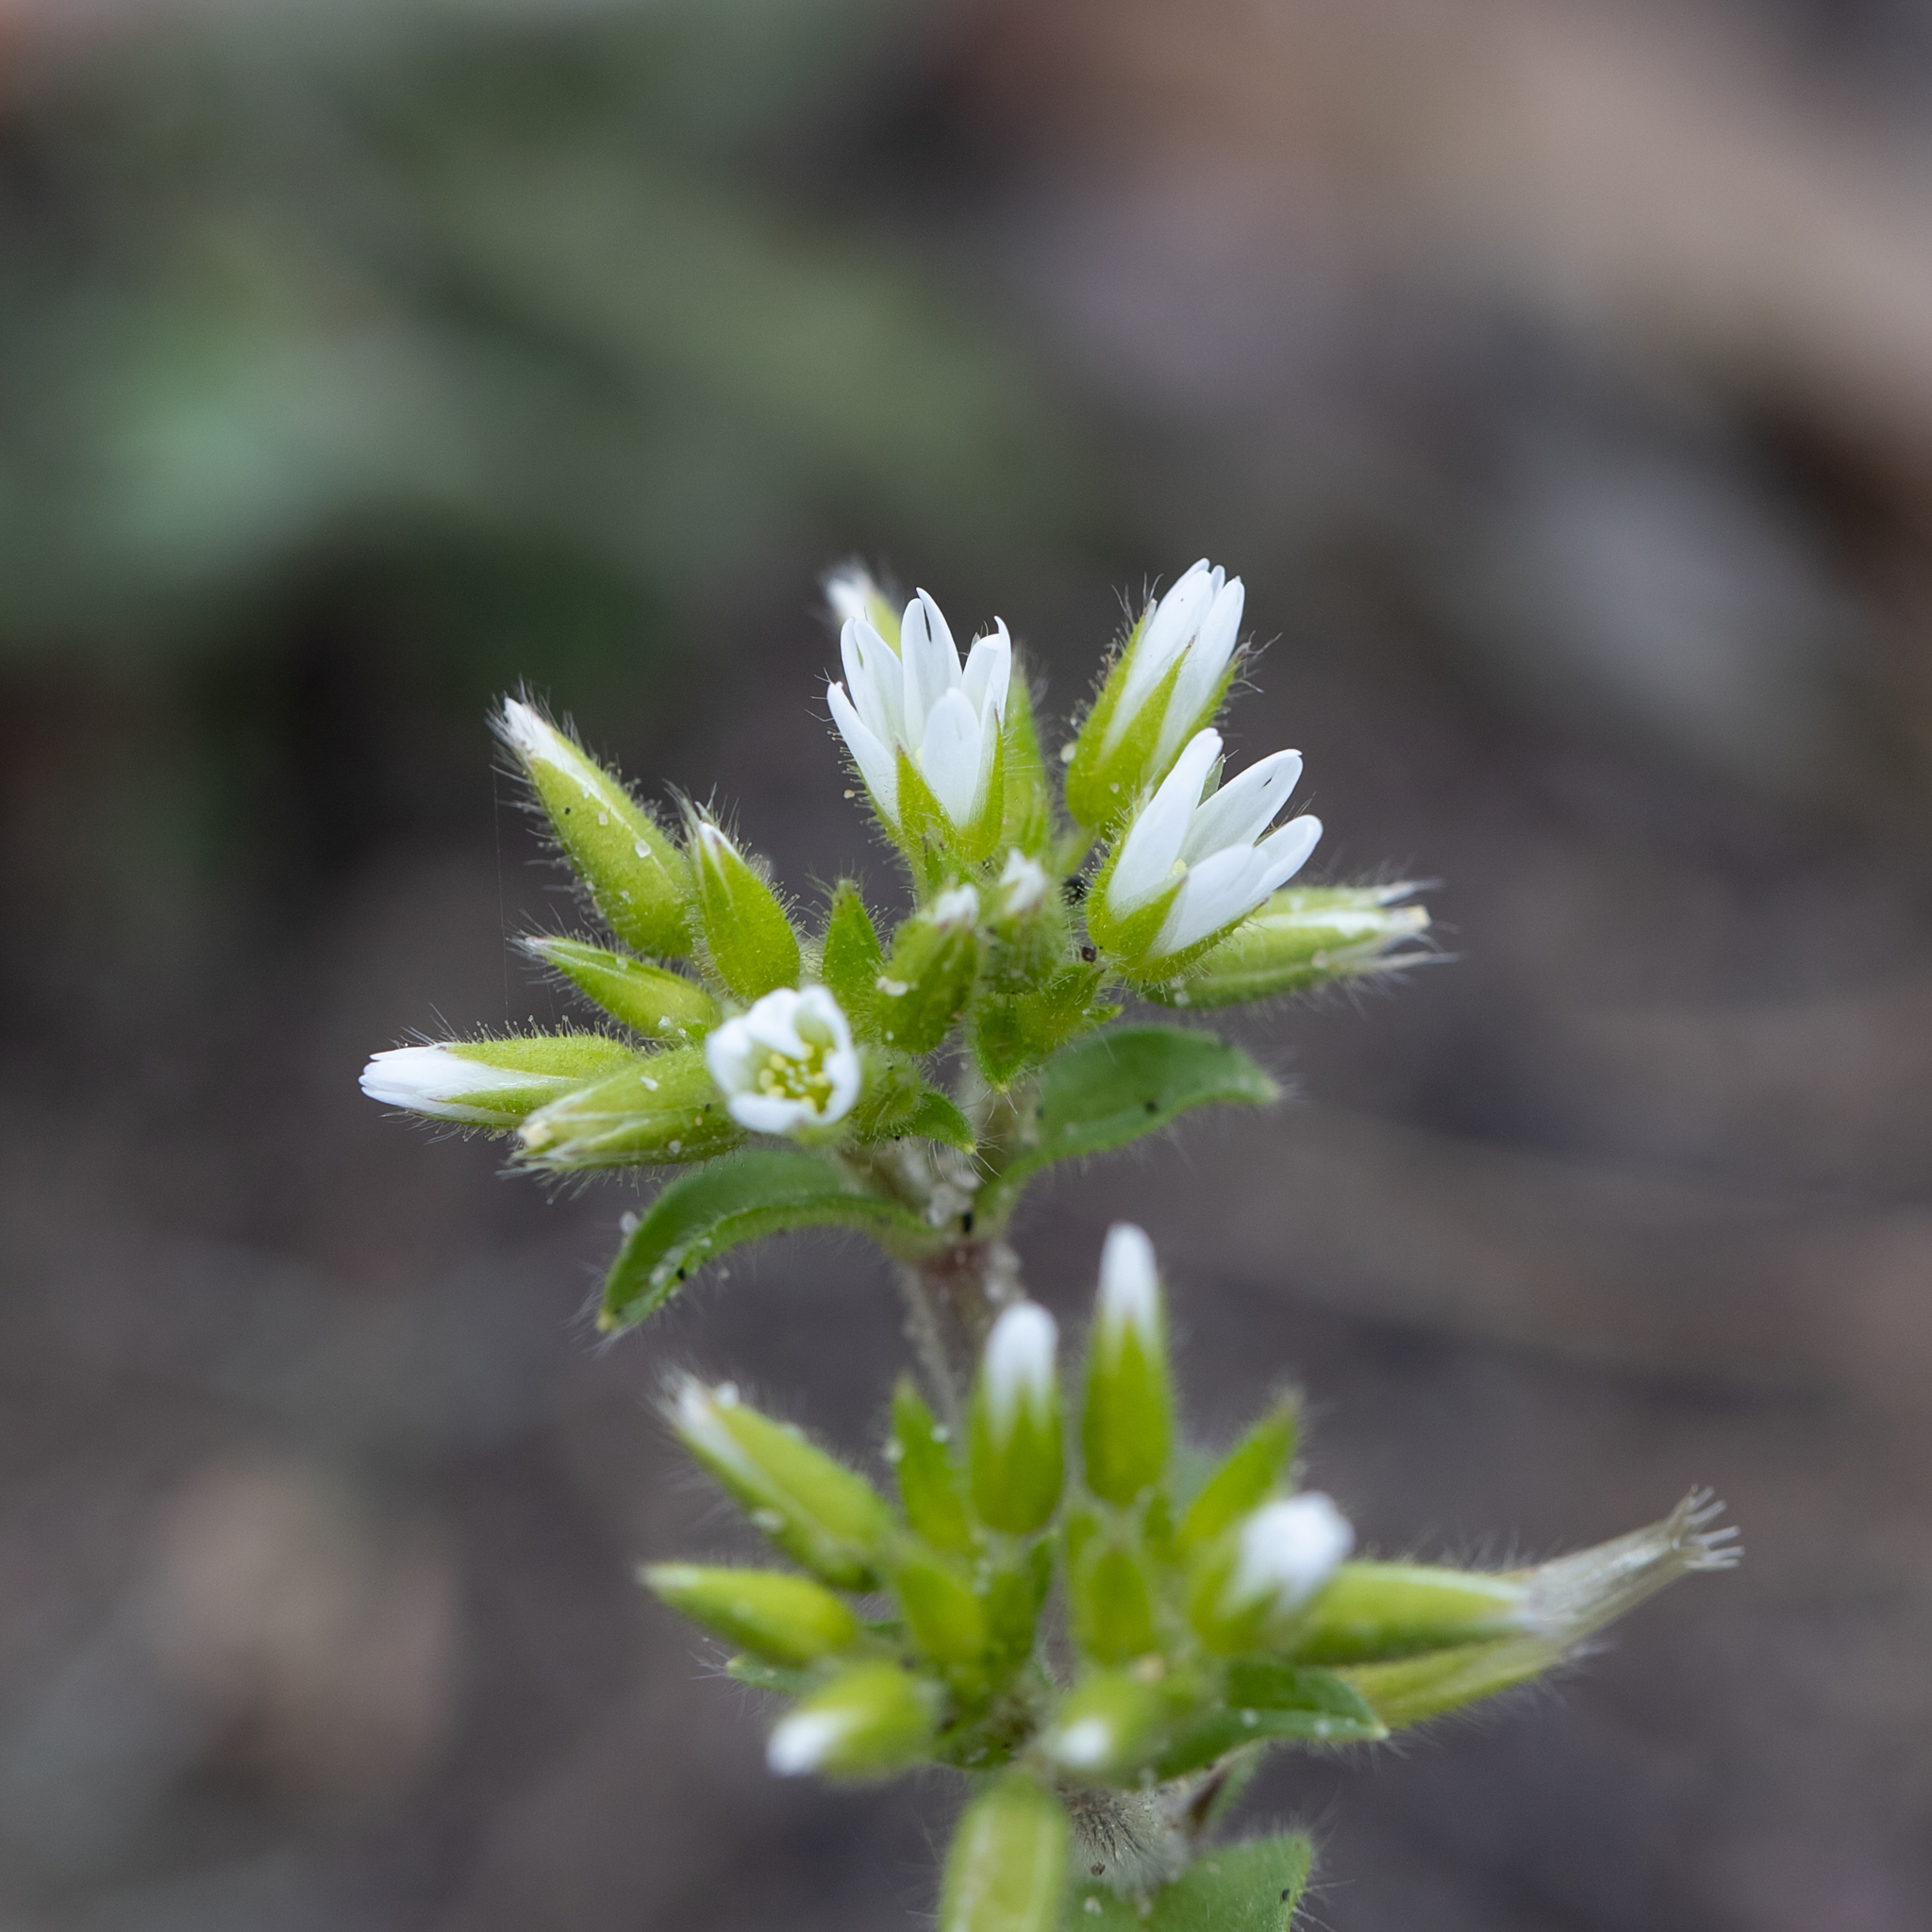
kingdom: Plantae
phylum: Tracheophyta
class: Magnoliopsida
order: Caryophyllales
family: Caryophyllaceae
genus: Cerastium
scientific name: Cerastium glomeratum
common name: Sticky chickweed
